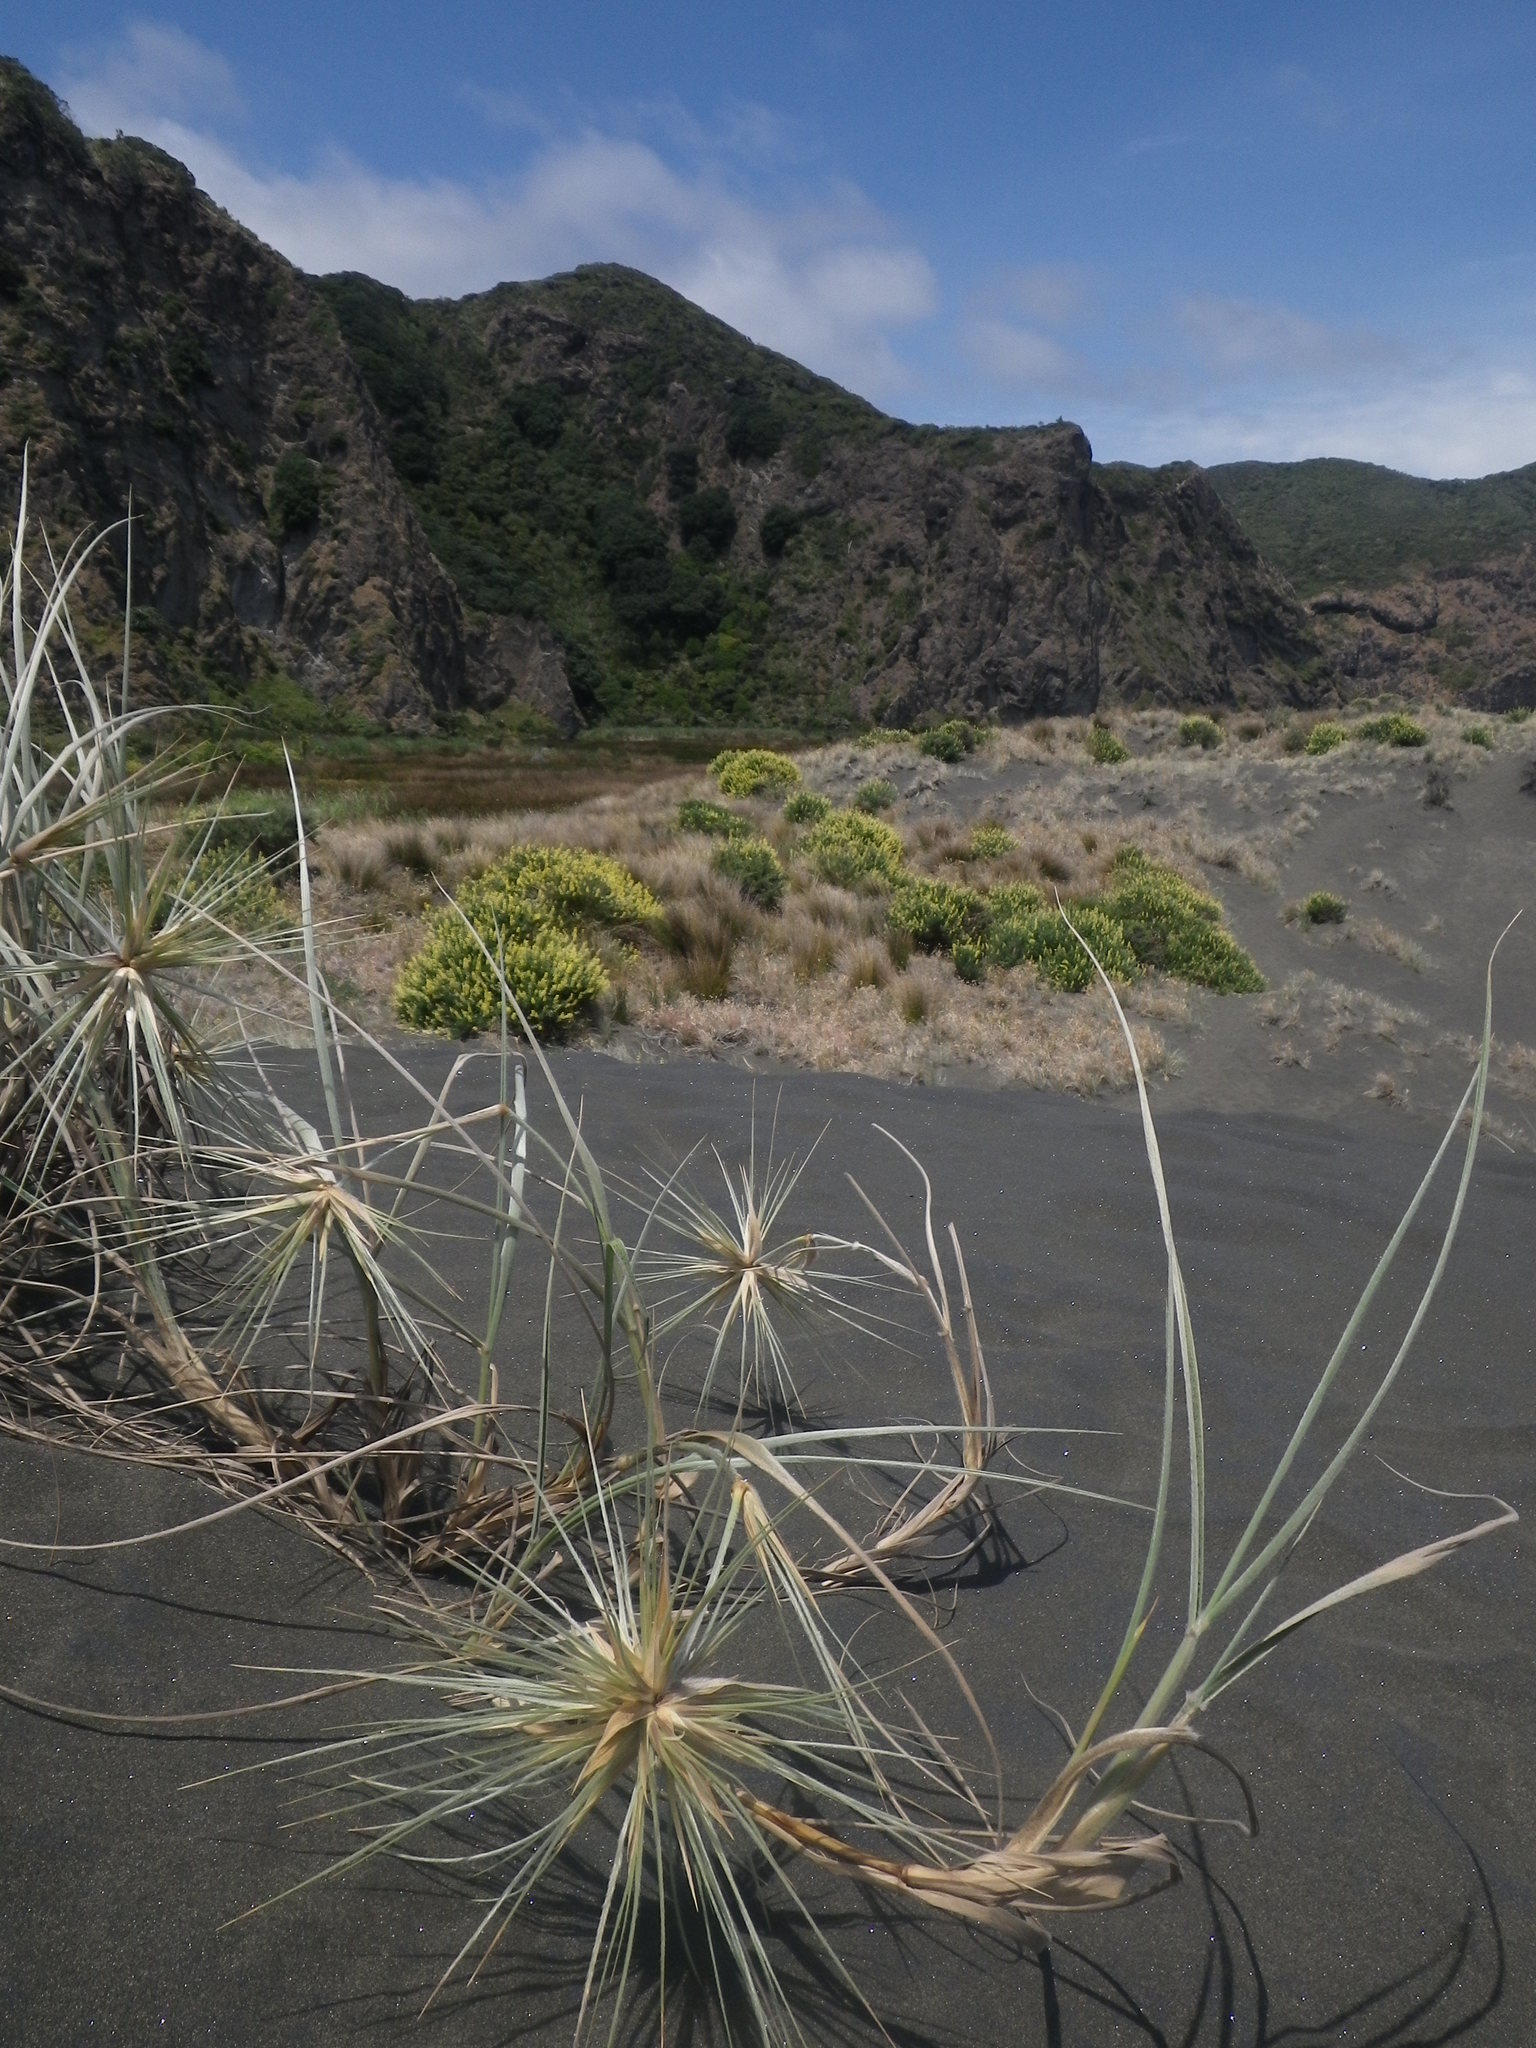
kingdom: Plantae
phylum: Tracheophyta
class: Liliopsida
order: Poales
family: Poaceae
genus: Spinifex
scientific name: Spinifex sericeus
